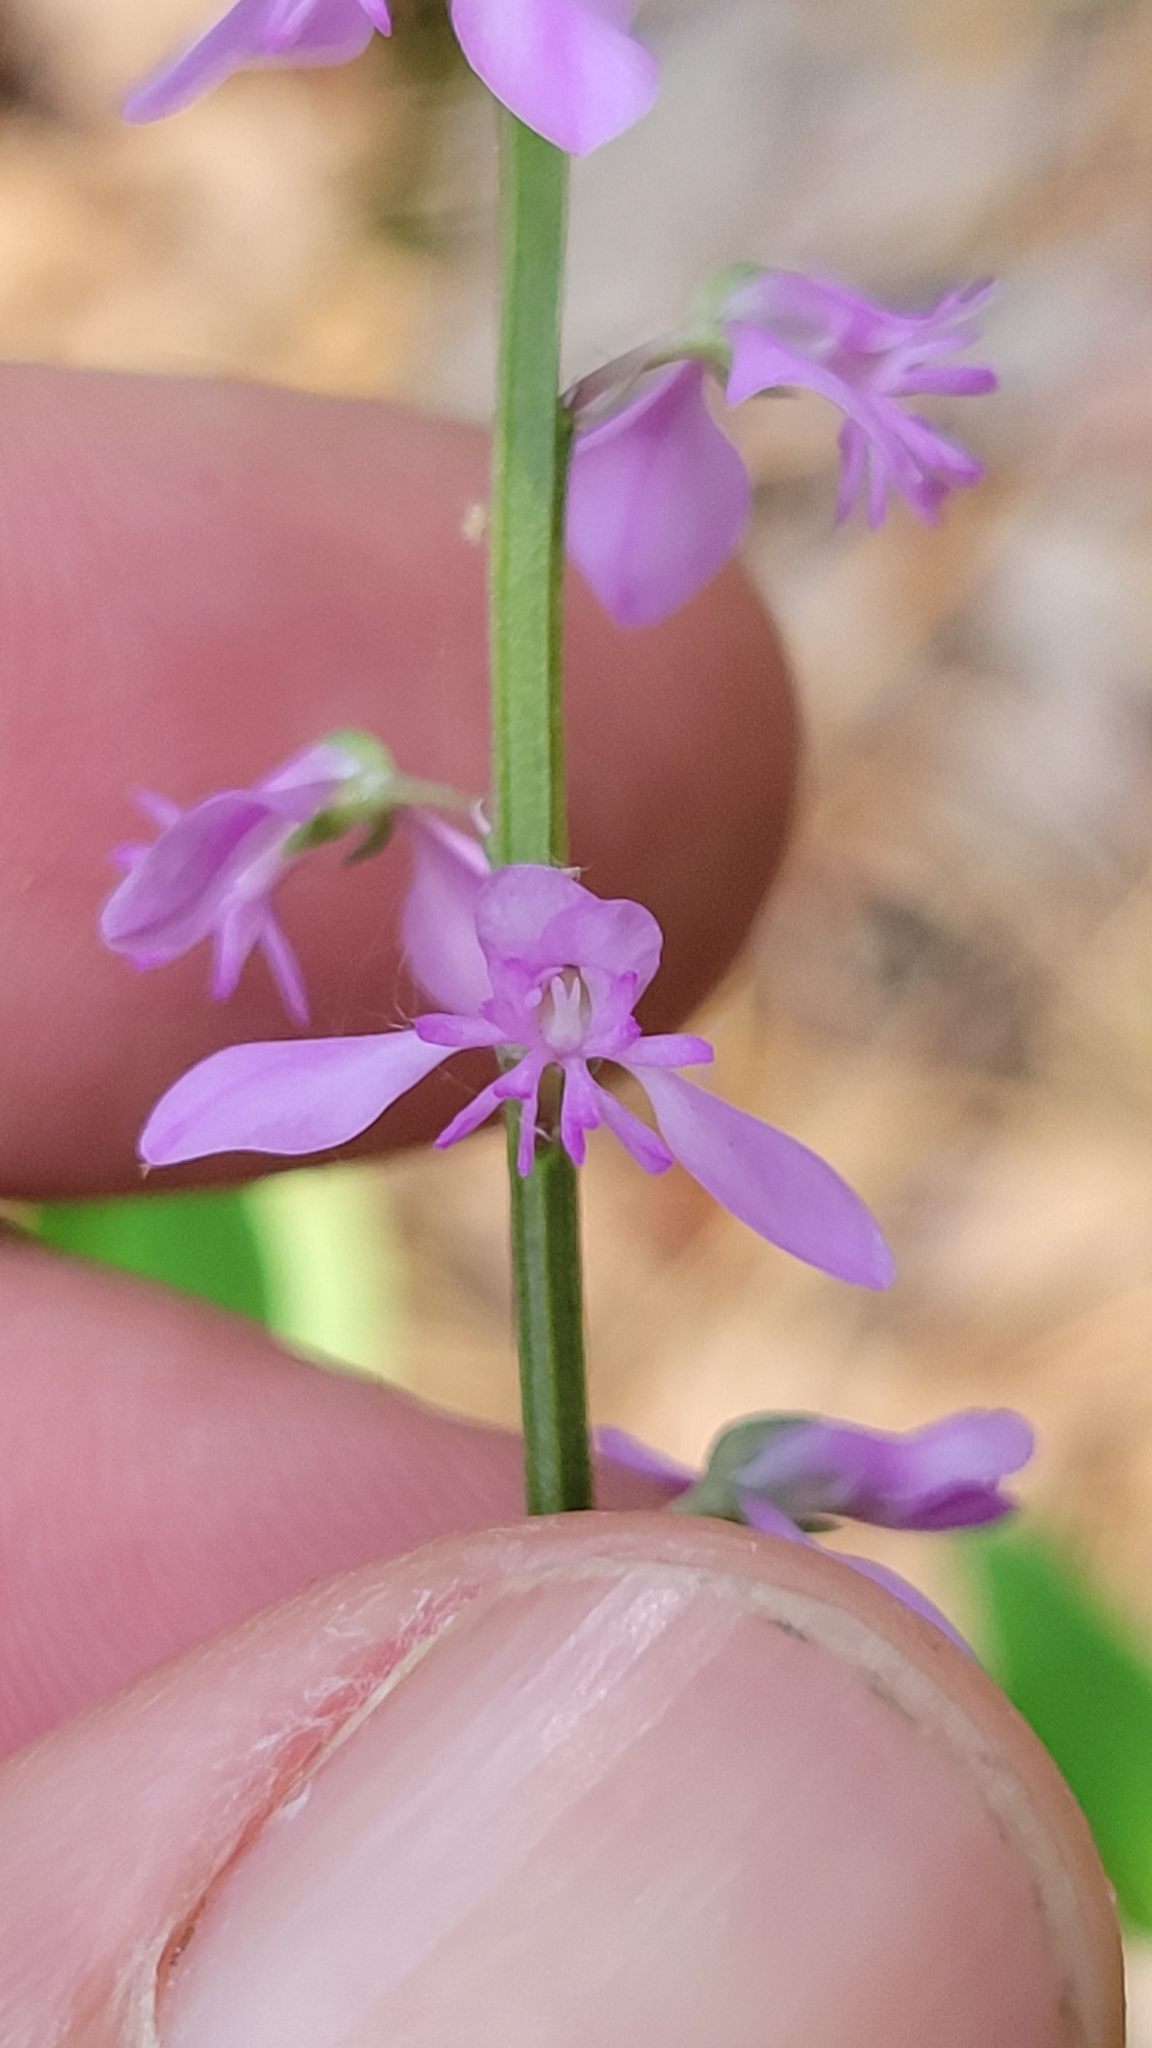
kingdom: Plantae
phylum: Tracheophyta
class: Magnoliopsida
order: Fabales
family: Polygalaceae
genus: Polygala
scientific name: Polygala polygama
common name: Bitter milkwort
